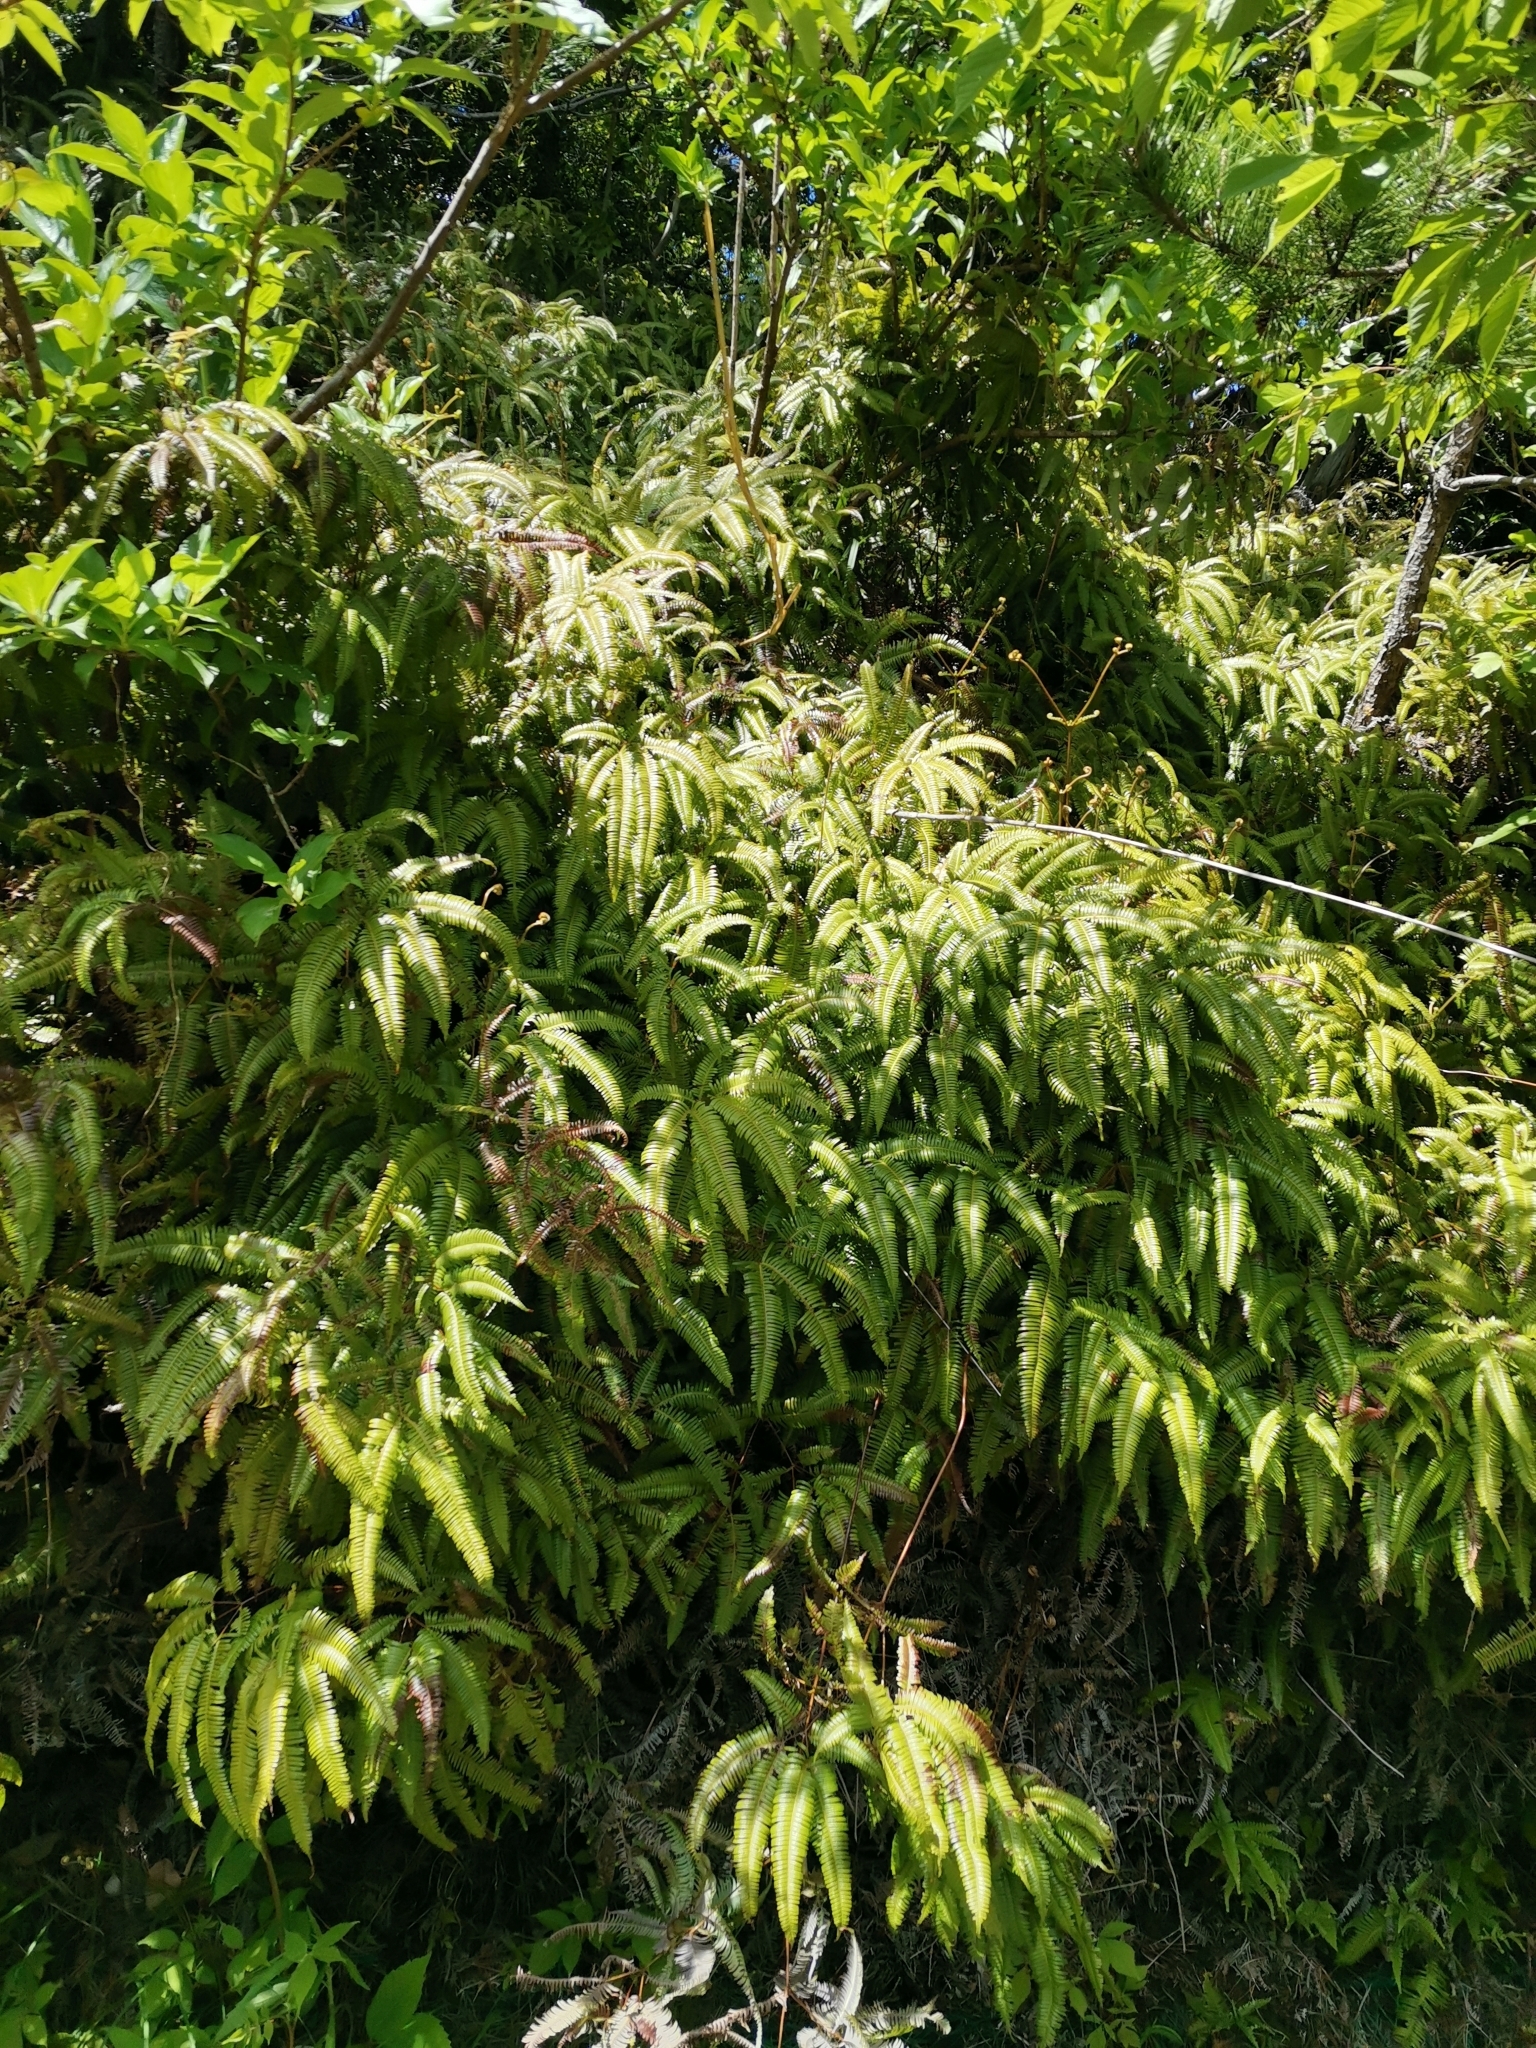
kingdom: Plantae
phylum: Tracheophyta
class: Polypodiopsida
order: Gleicheniales
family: Gleicheniaceae
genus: Dicranopteris
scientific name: Dicranopteris linearis
